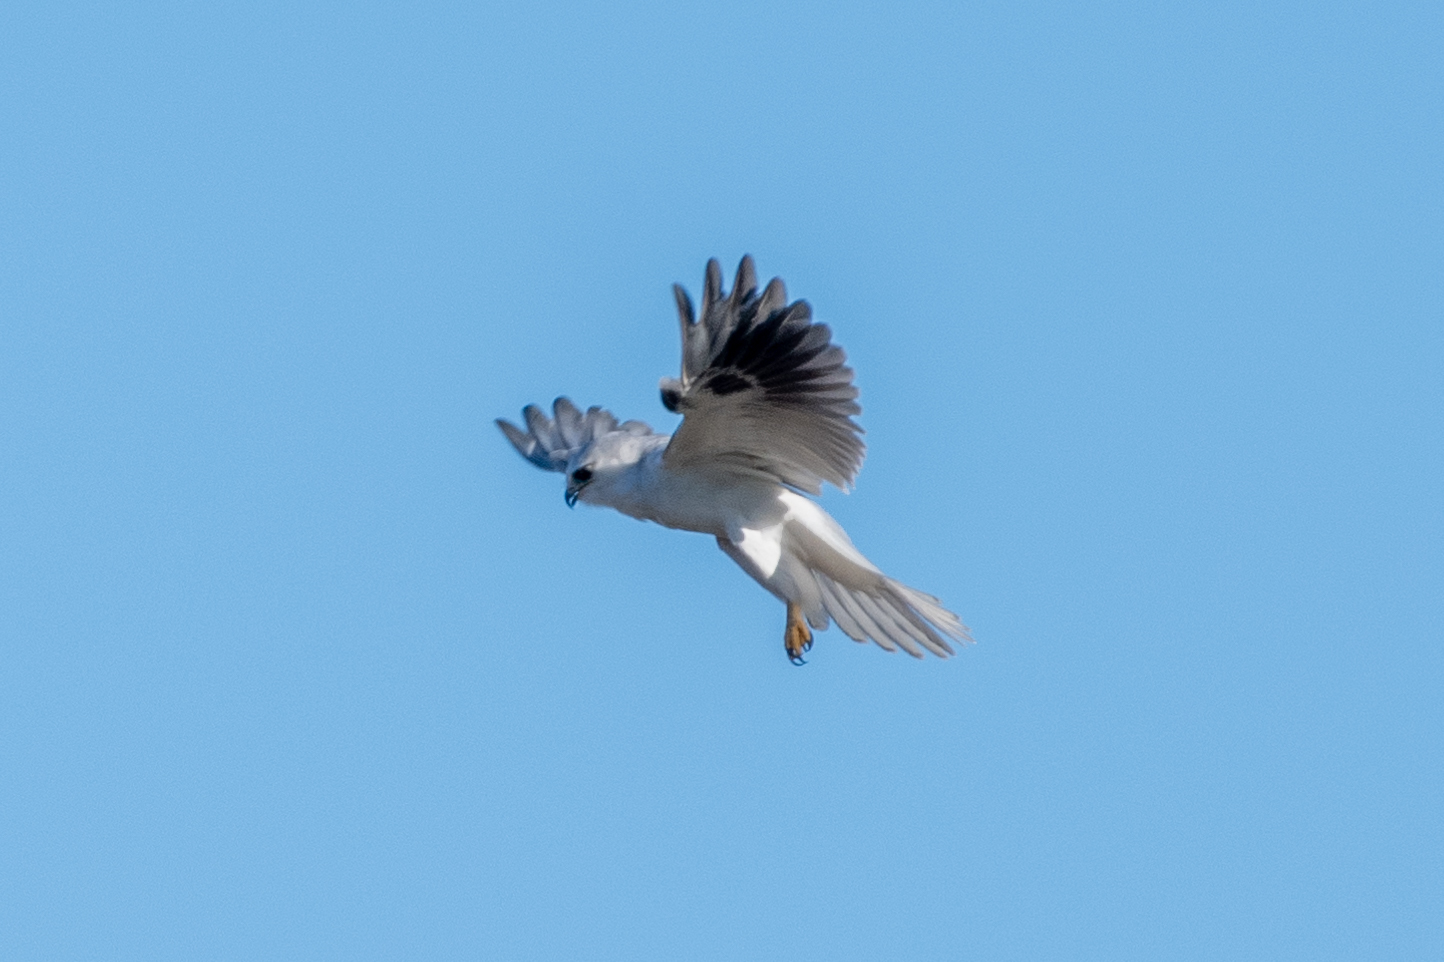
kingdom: Animalia
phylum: Chordata
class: Aves
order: Accipitriformes
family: Accipitridae
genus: Elanus
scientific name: Elanus leucurus
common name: White-tailed kite
